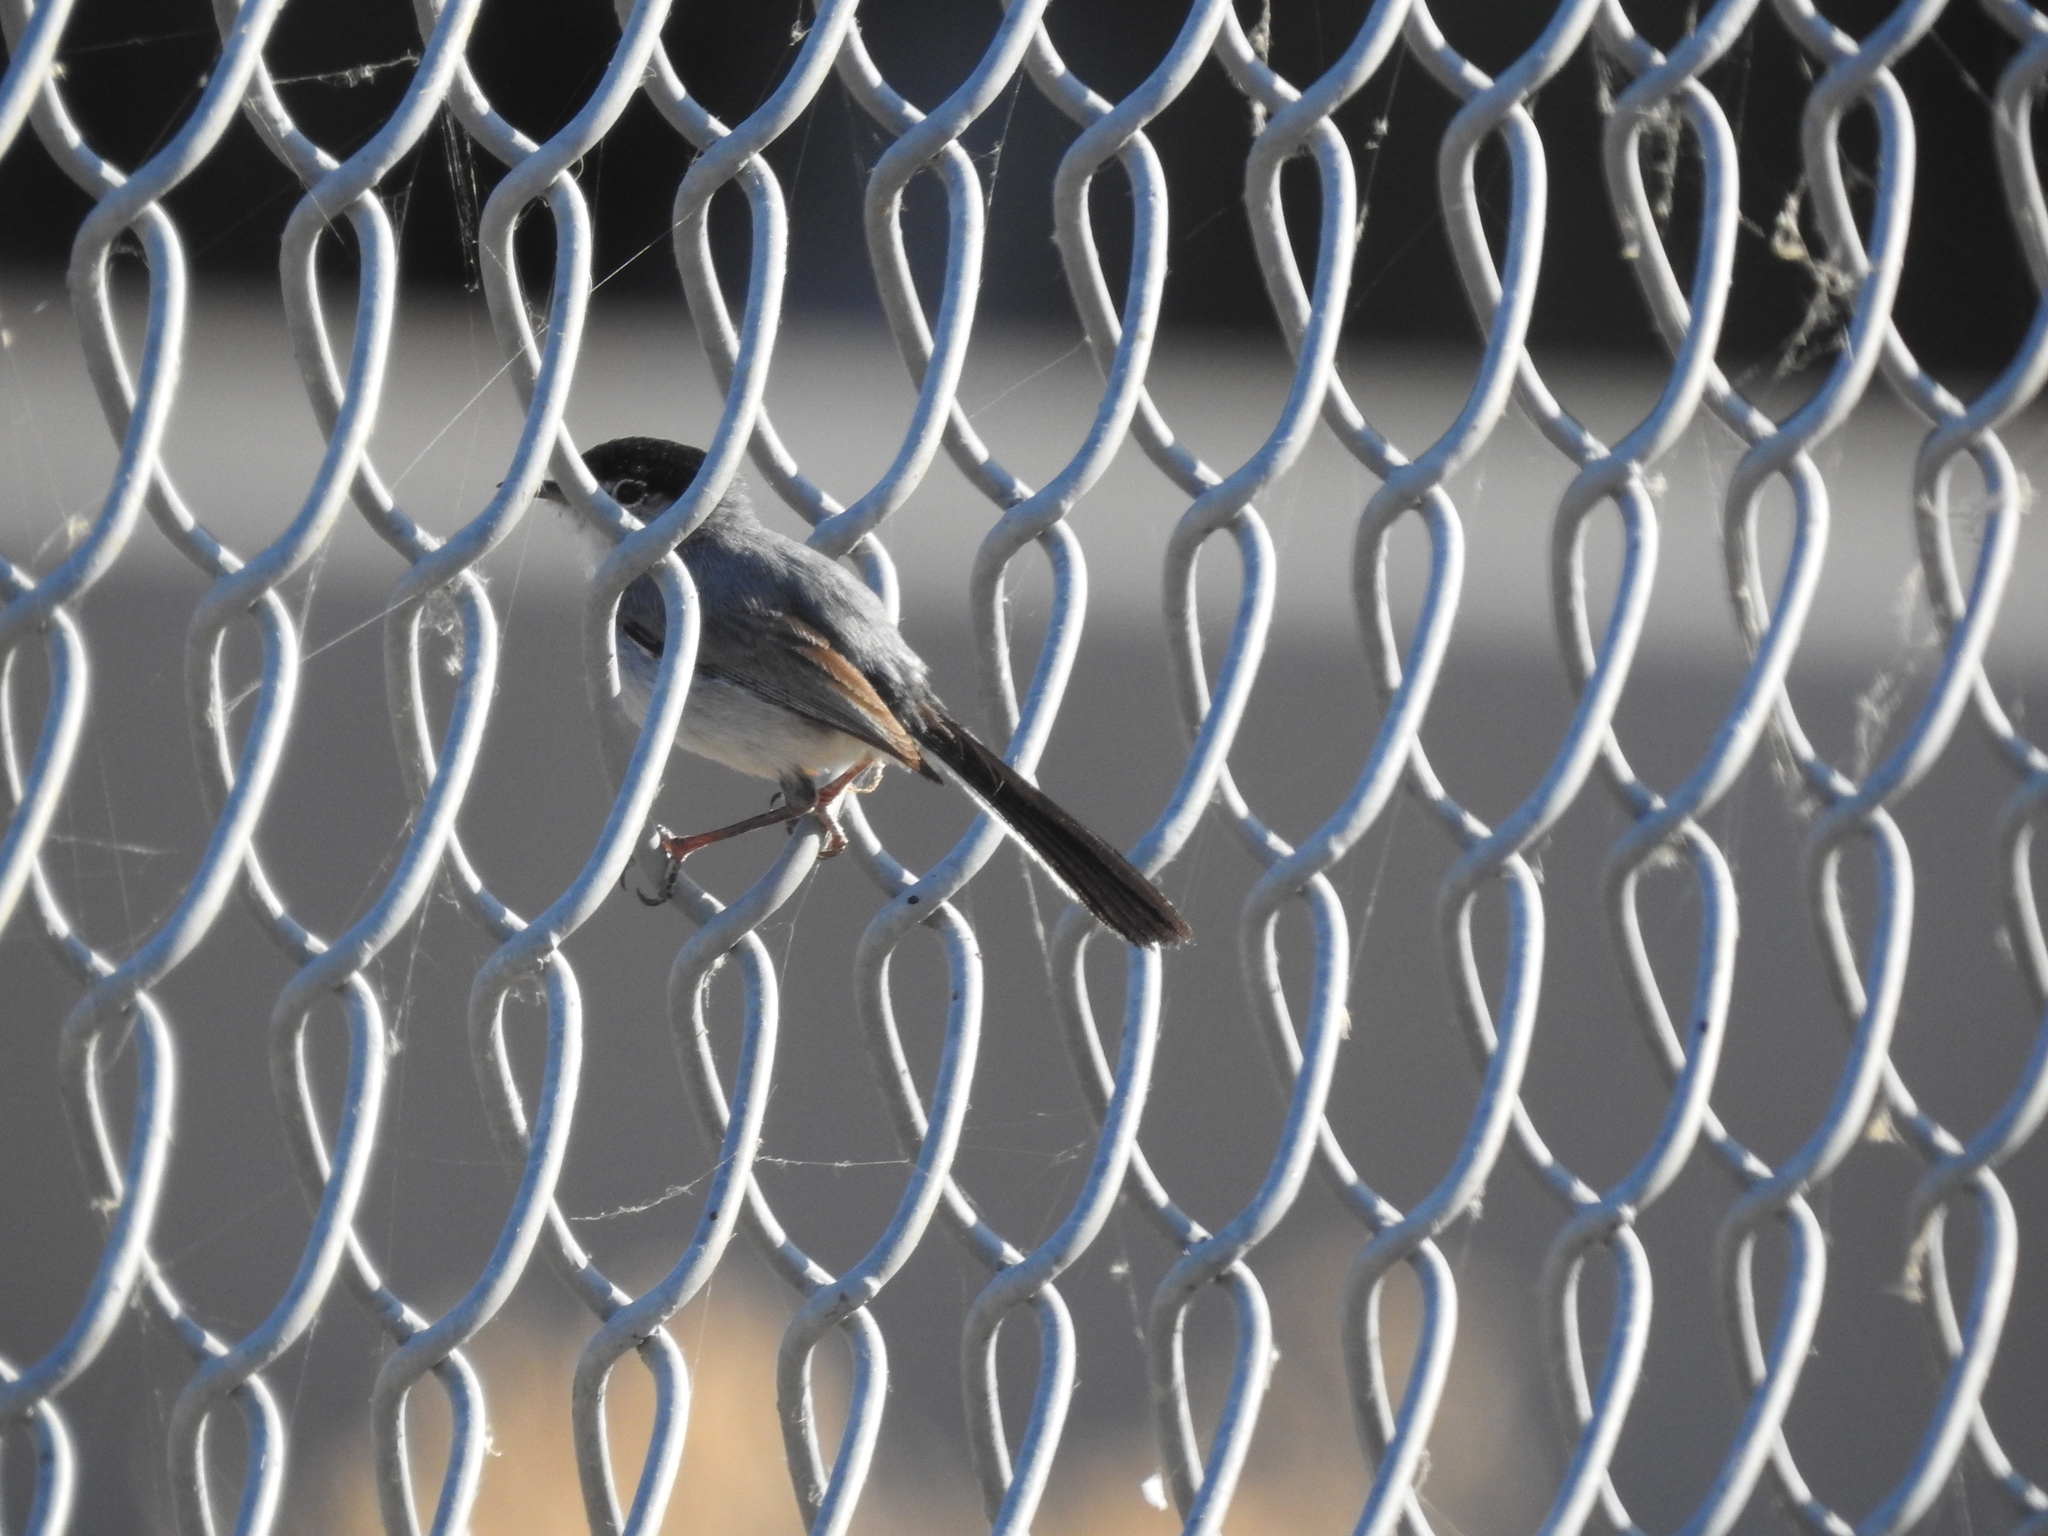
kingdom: Animalia
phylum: Chordata
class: Aves
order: Passeriformes
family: Polioptilidae
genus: Polioptila
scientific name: Polioptila melanura
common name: Black-tailed gnatcatcher
